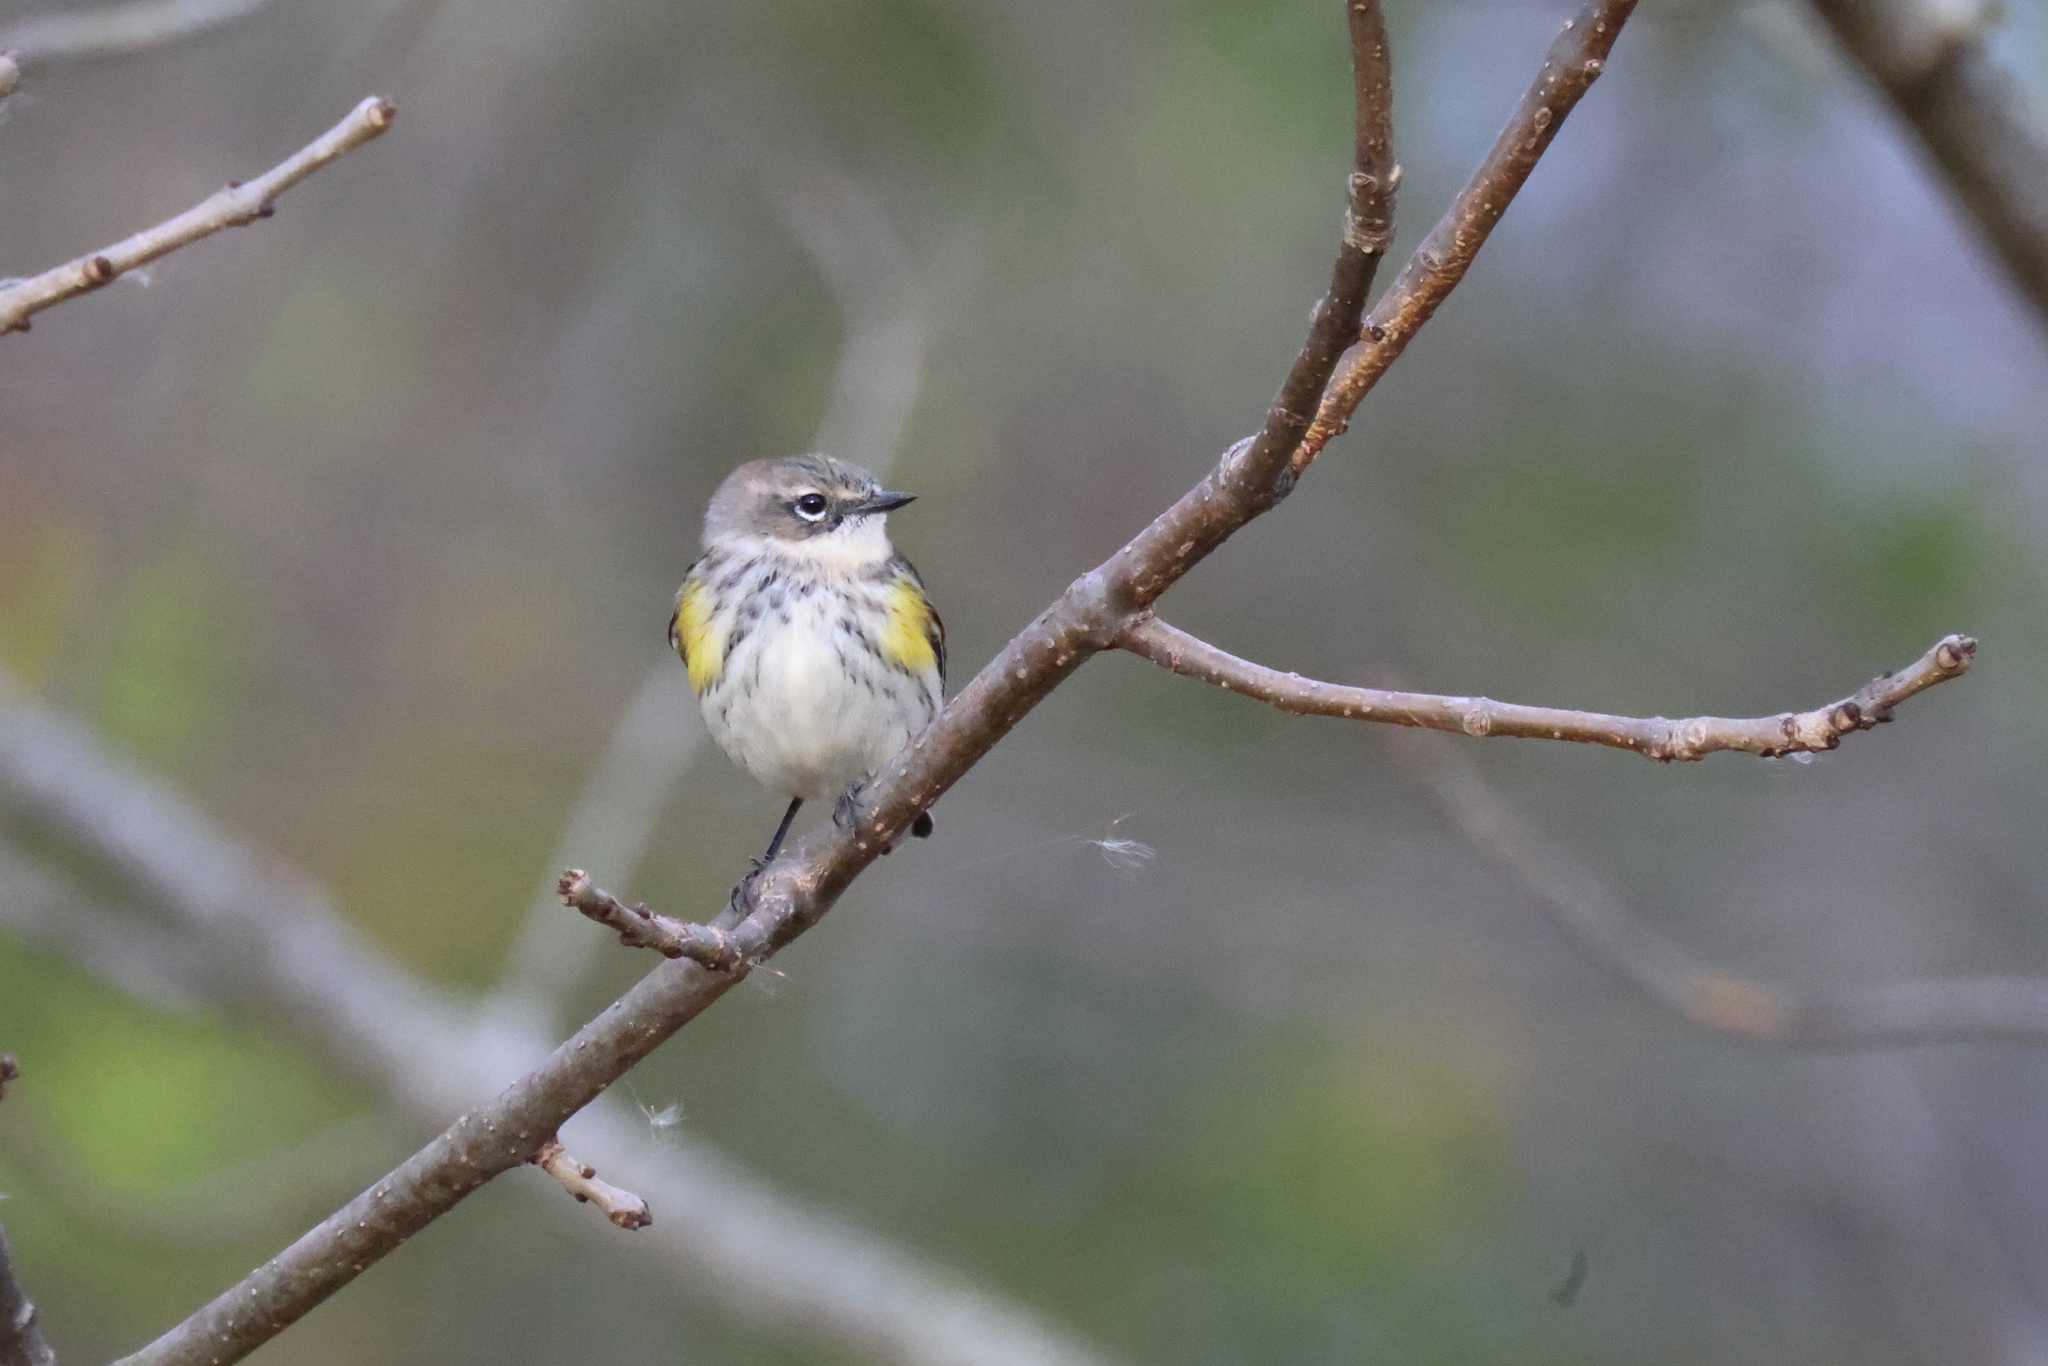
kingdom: Animalia
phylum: Chordata
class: Aves
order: Passeriformes
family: Parulidae
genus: Setophaga
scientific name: Setophaga coronata
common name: Myrtle warbler
